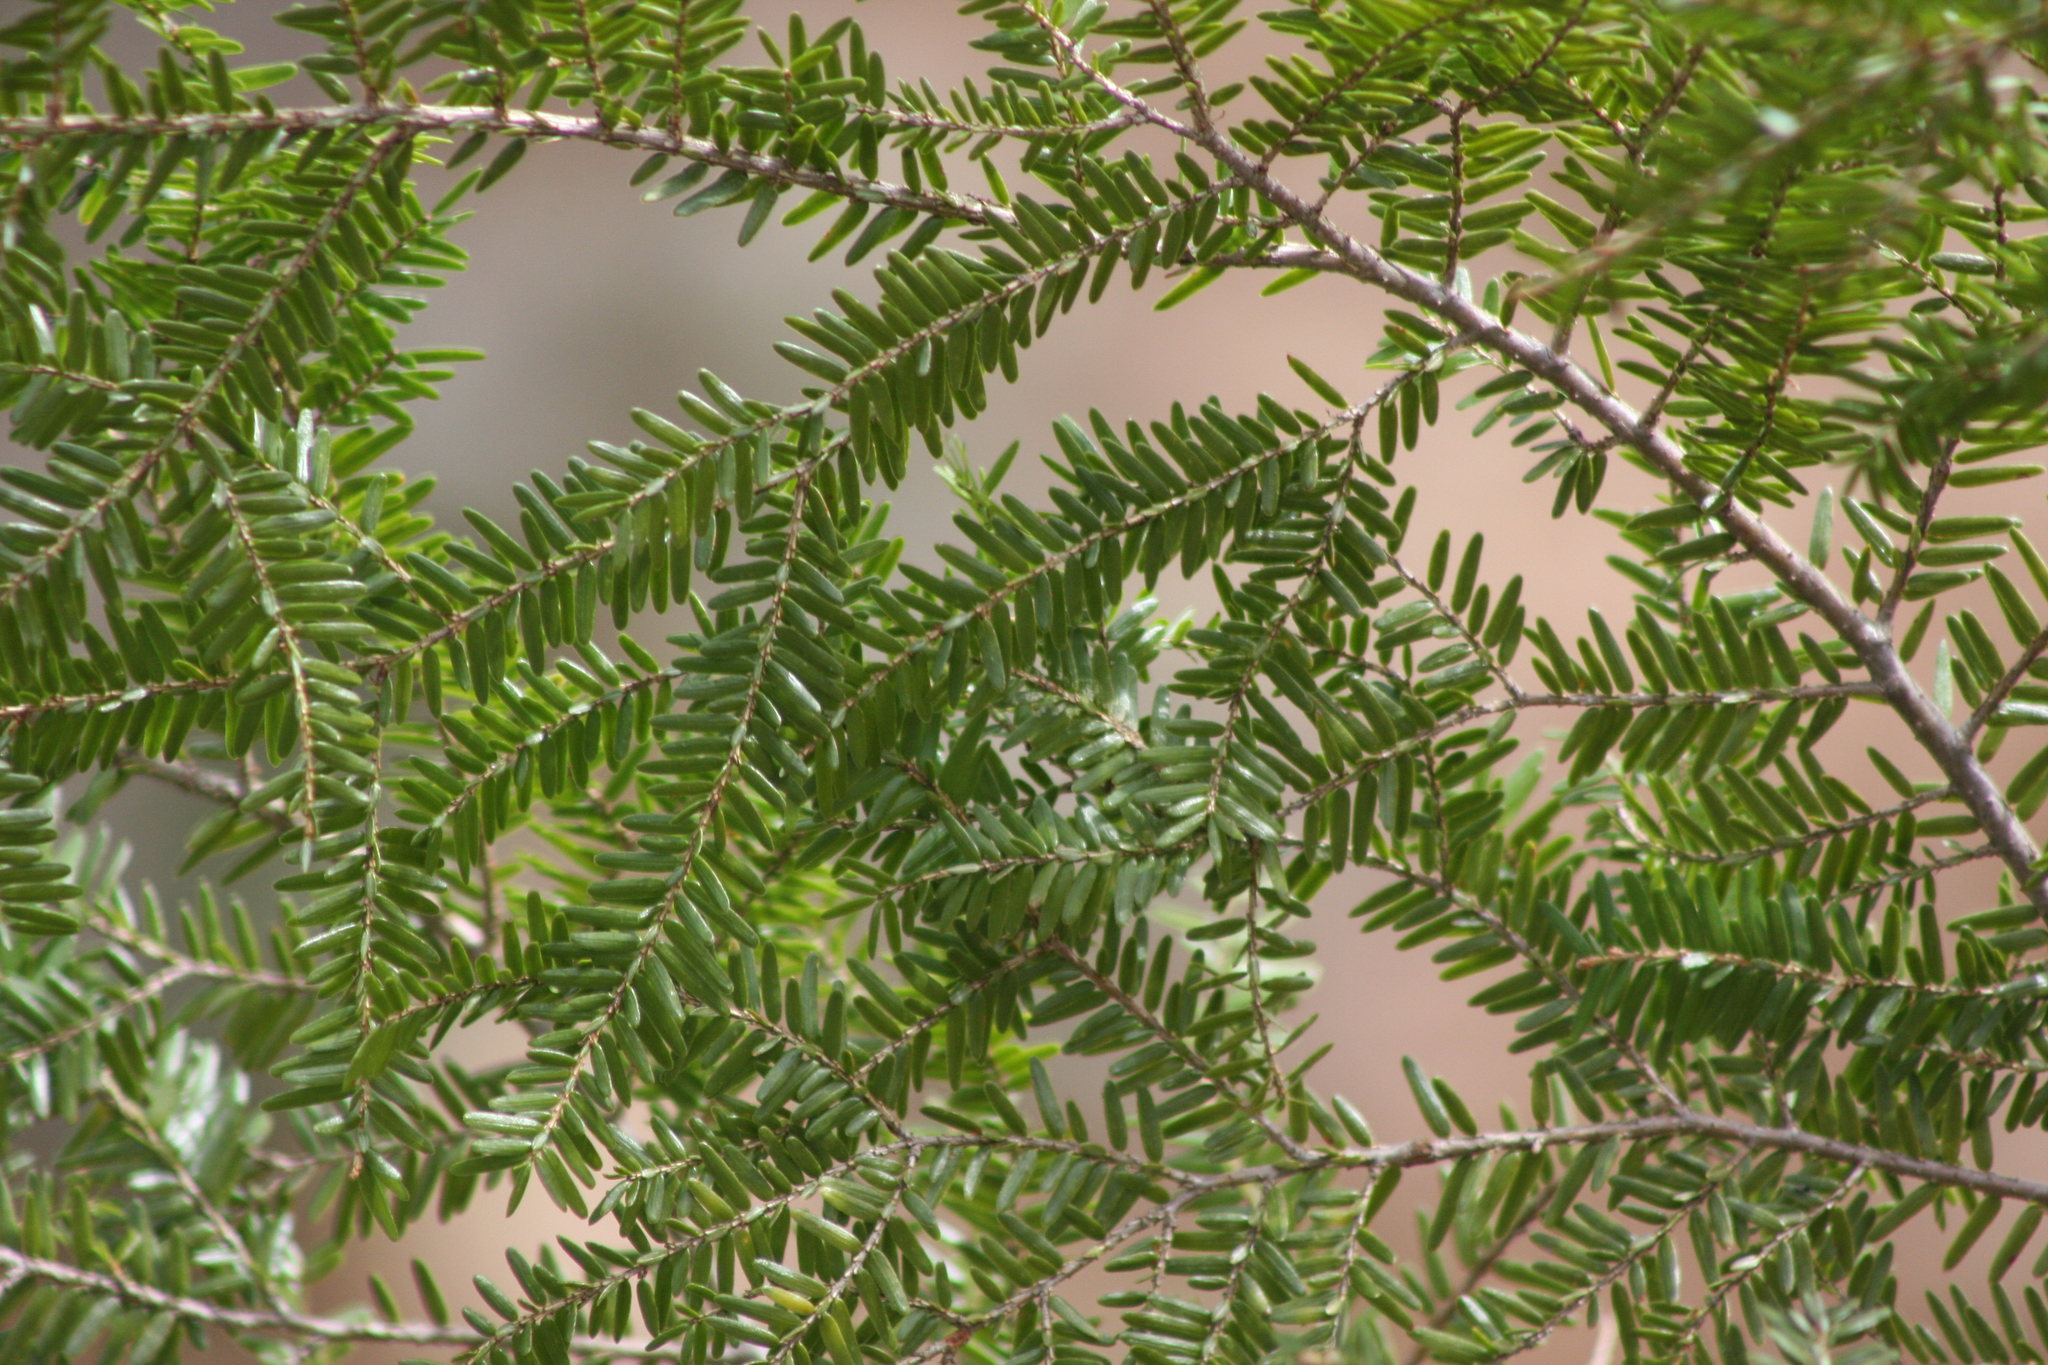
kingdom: Plantae
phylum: Tracheophyta
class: Pinopsida
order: Pinales
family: Pinaceae
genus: Tsuga
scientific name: Tsuga canadensis
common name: Eastern hemlock
